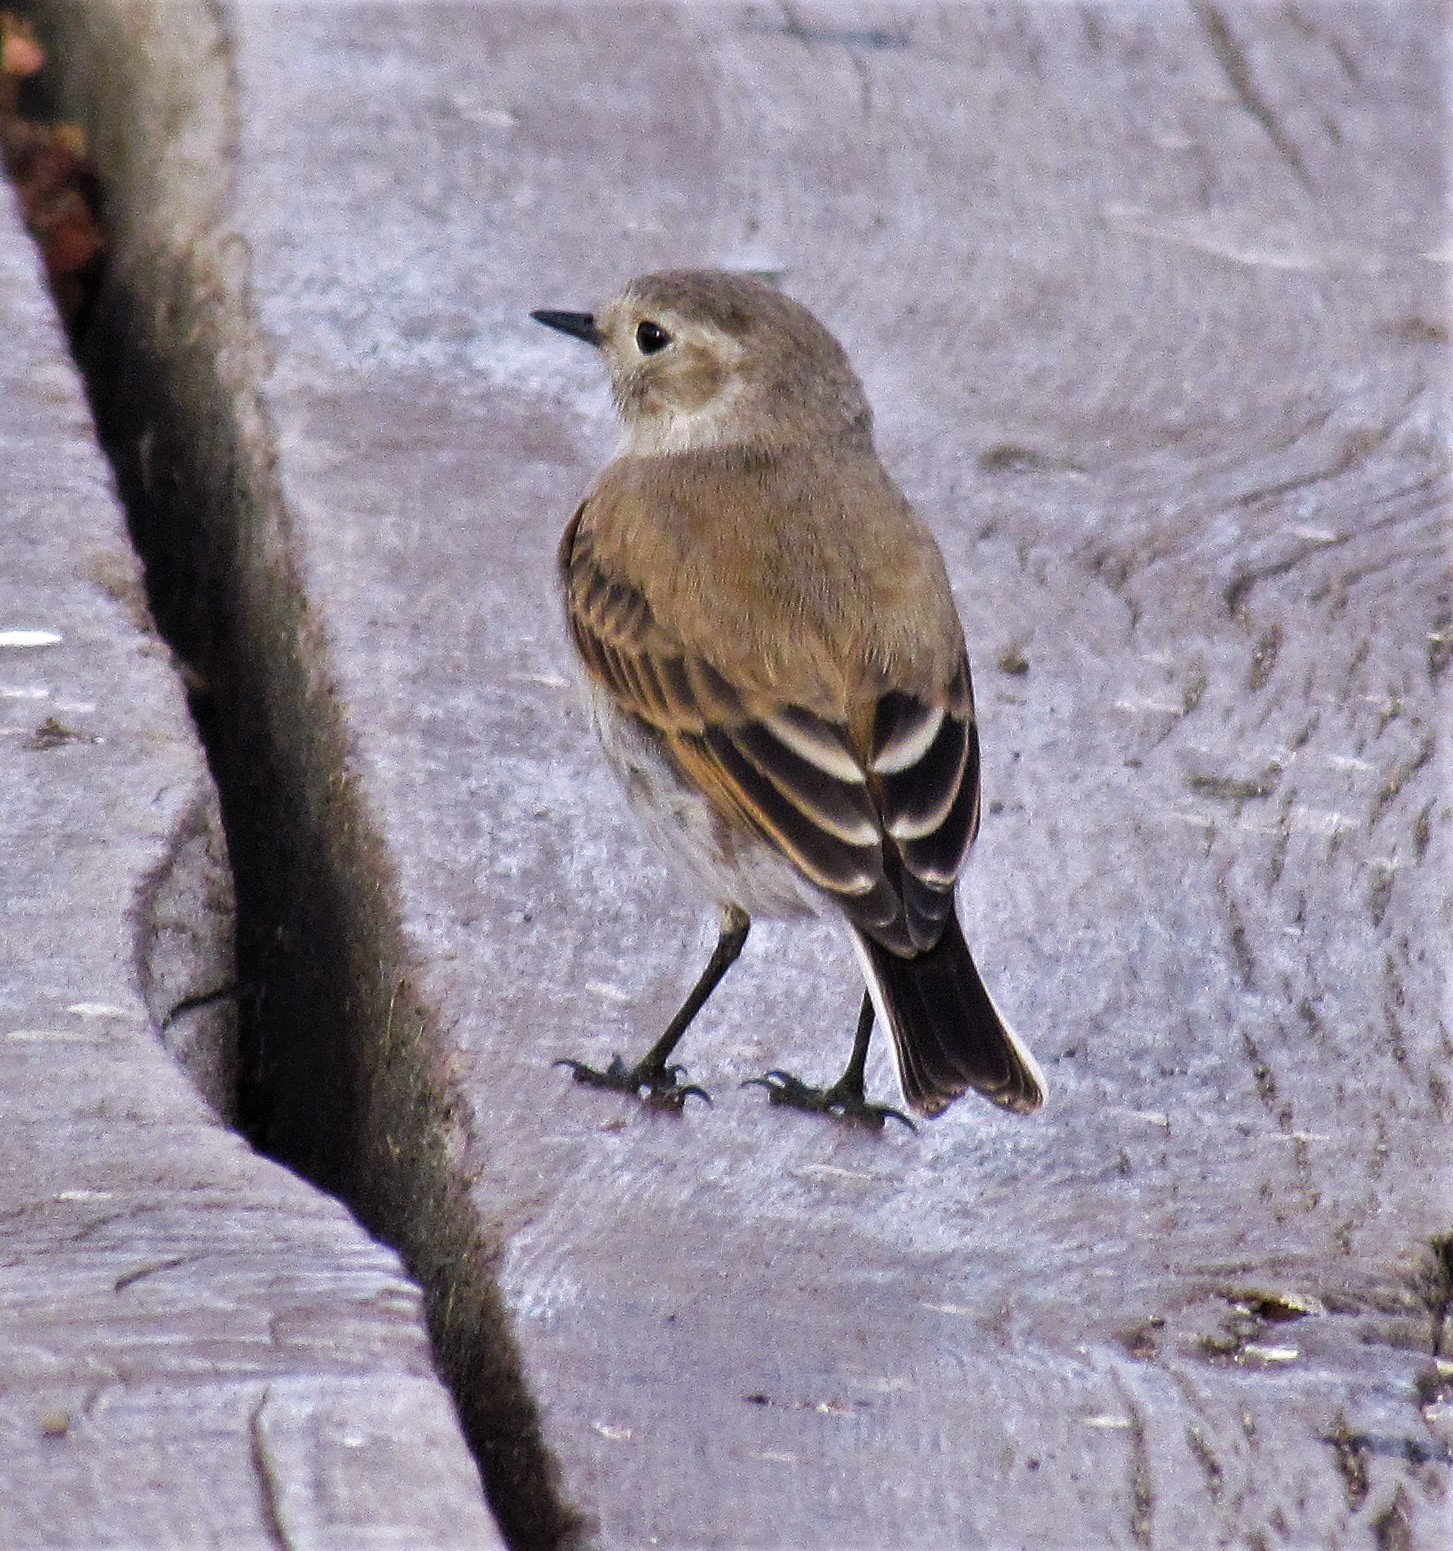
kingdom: Animalia
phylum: Chordata
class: Aves
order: Passeriformes
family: Tyrannidae
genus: Lessonia
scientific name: Lessonia rufa
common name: Austral negrito
